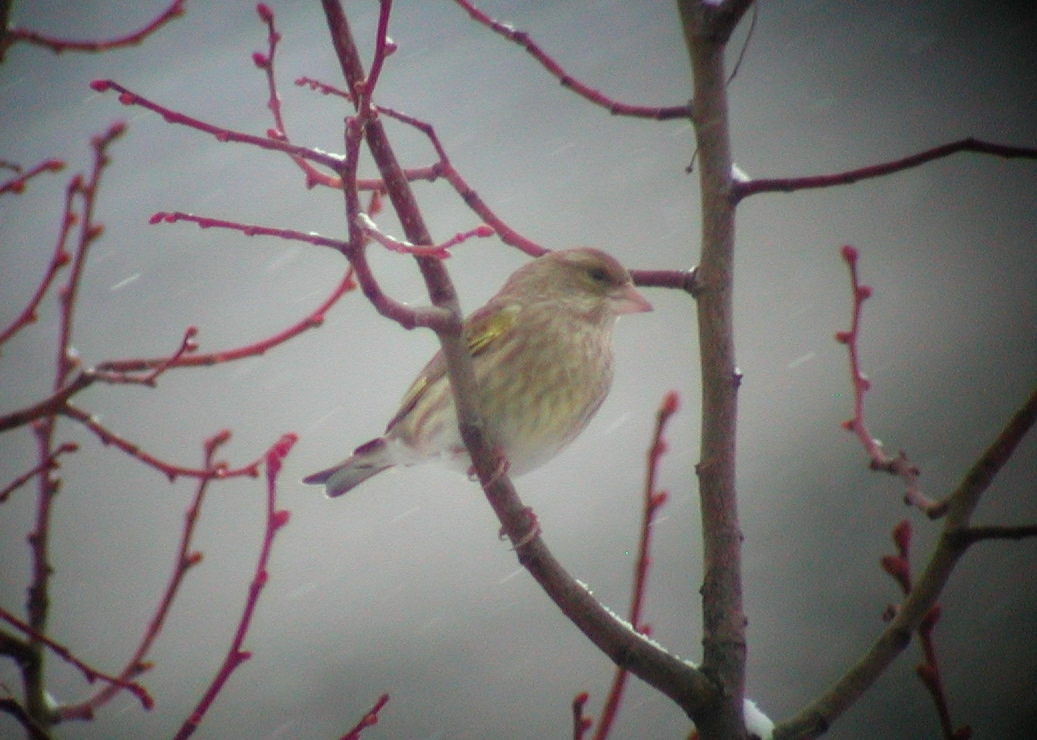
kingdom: Plantae
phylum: Tracheophyta
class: Liliopsida
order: Poales
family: Poaceae
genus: Chloris
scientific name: Chloris chloris
